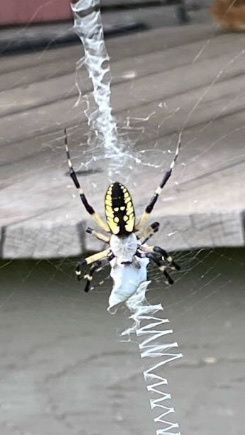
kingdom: Animalia
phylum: Arthropoda
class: Arachnida
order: Araneae
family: Araneidae
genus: Argiope
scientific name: Argiope aurantia
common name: Orb weavers
